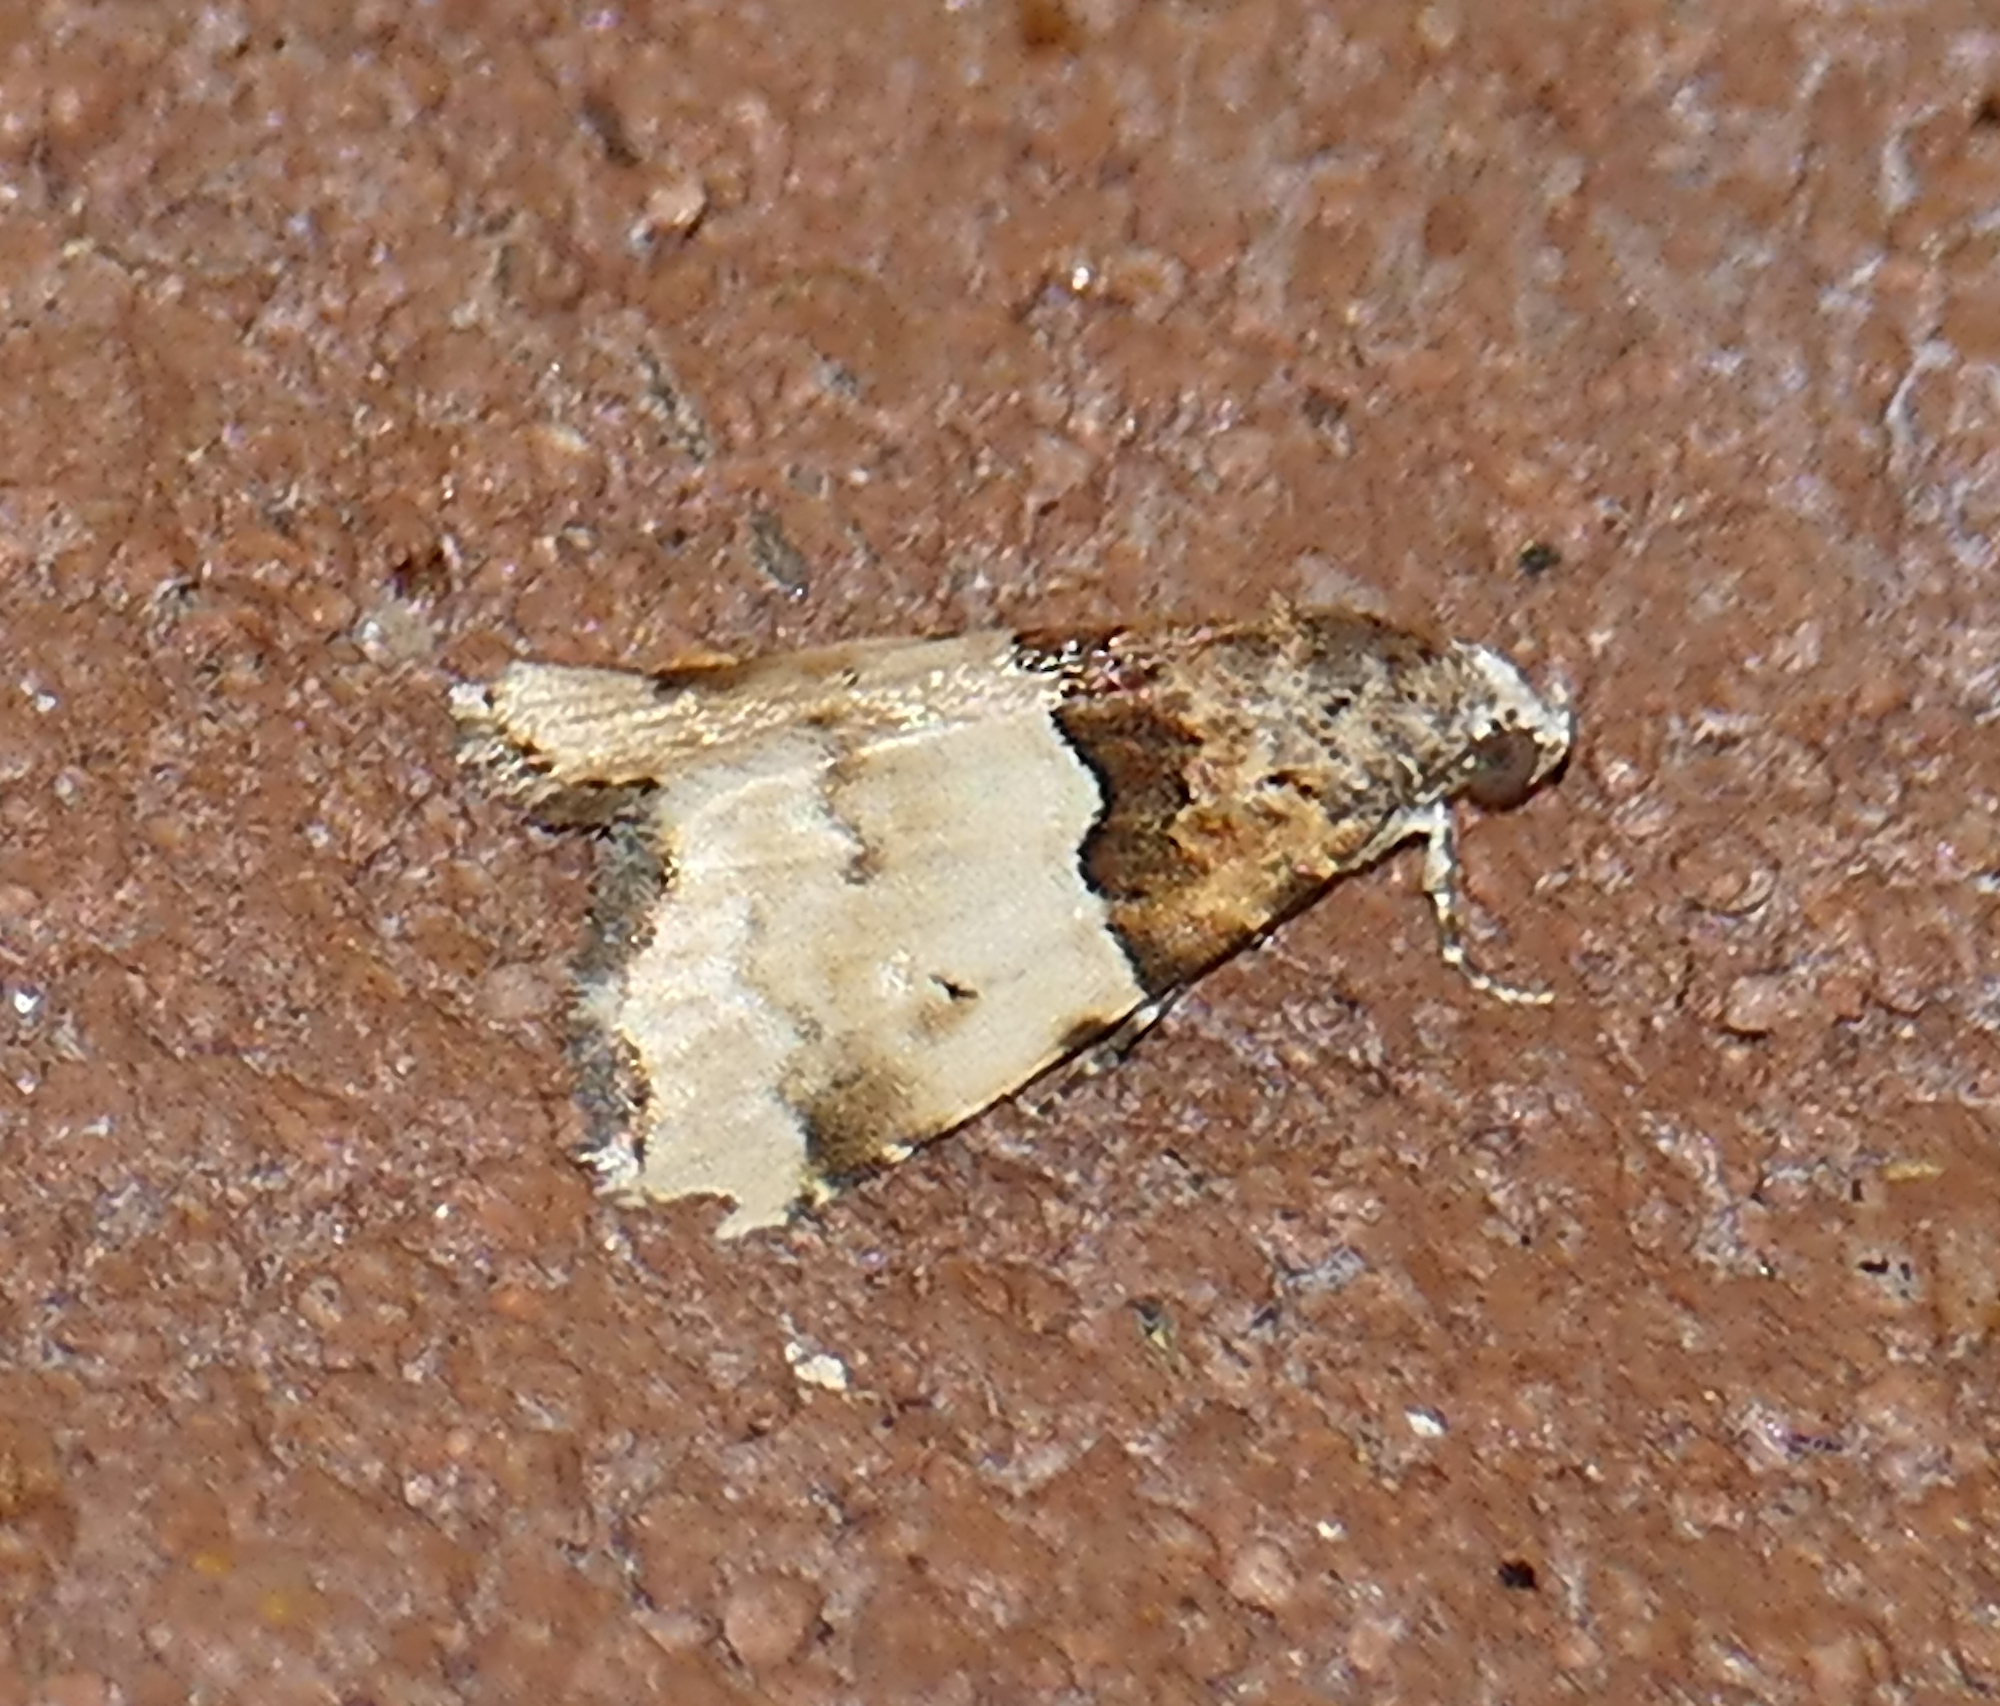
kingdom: Animalia
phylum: Arthropoda
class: Insecta
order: Lepidoptera
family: Noctuidae
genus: Cobubatha
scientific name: Cobubatha dividua
